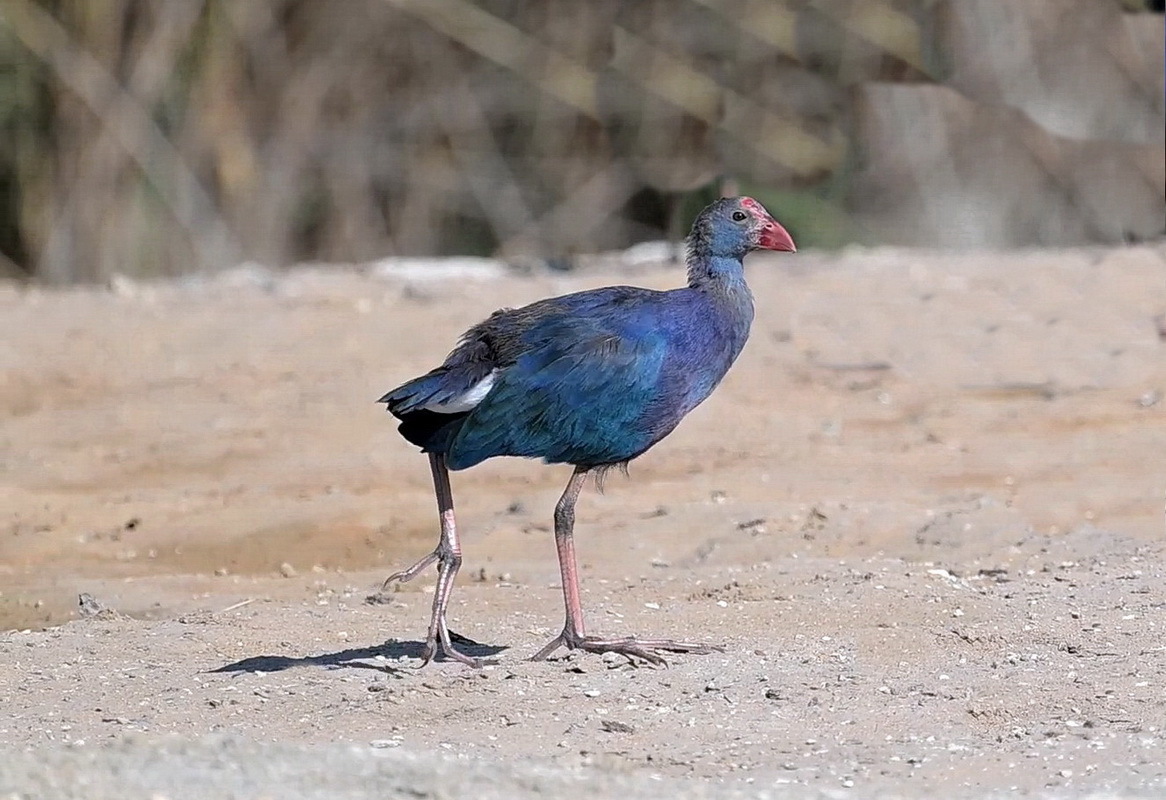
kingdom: Animalia
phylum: Chordata
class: Aves
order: Gruiformes
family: Rallidae
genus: Porphyrio
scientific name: Porphyrio porphyrio
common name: Purple swamphen
